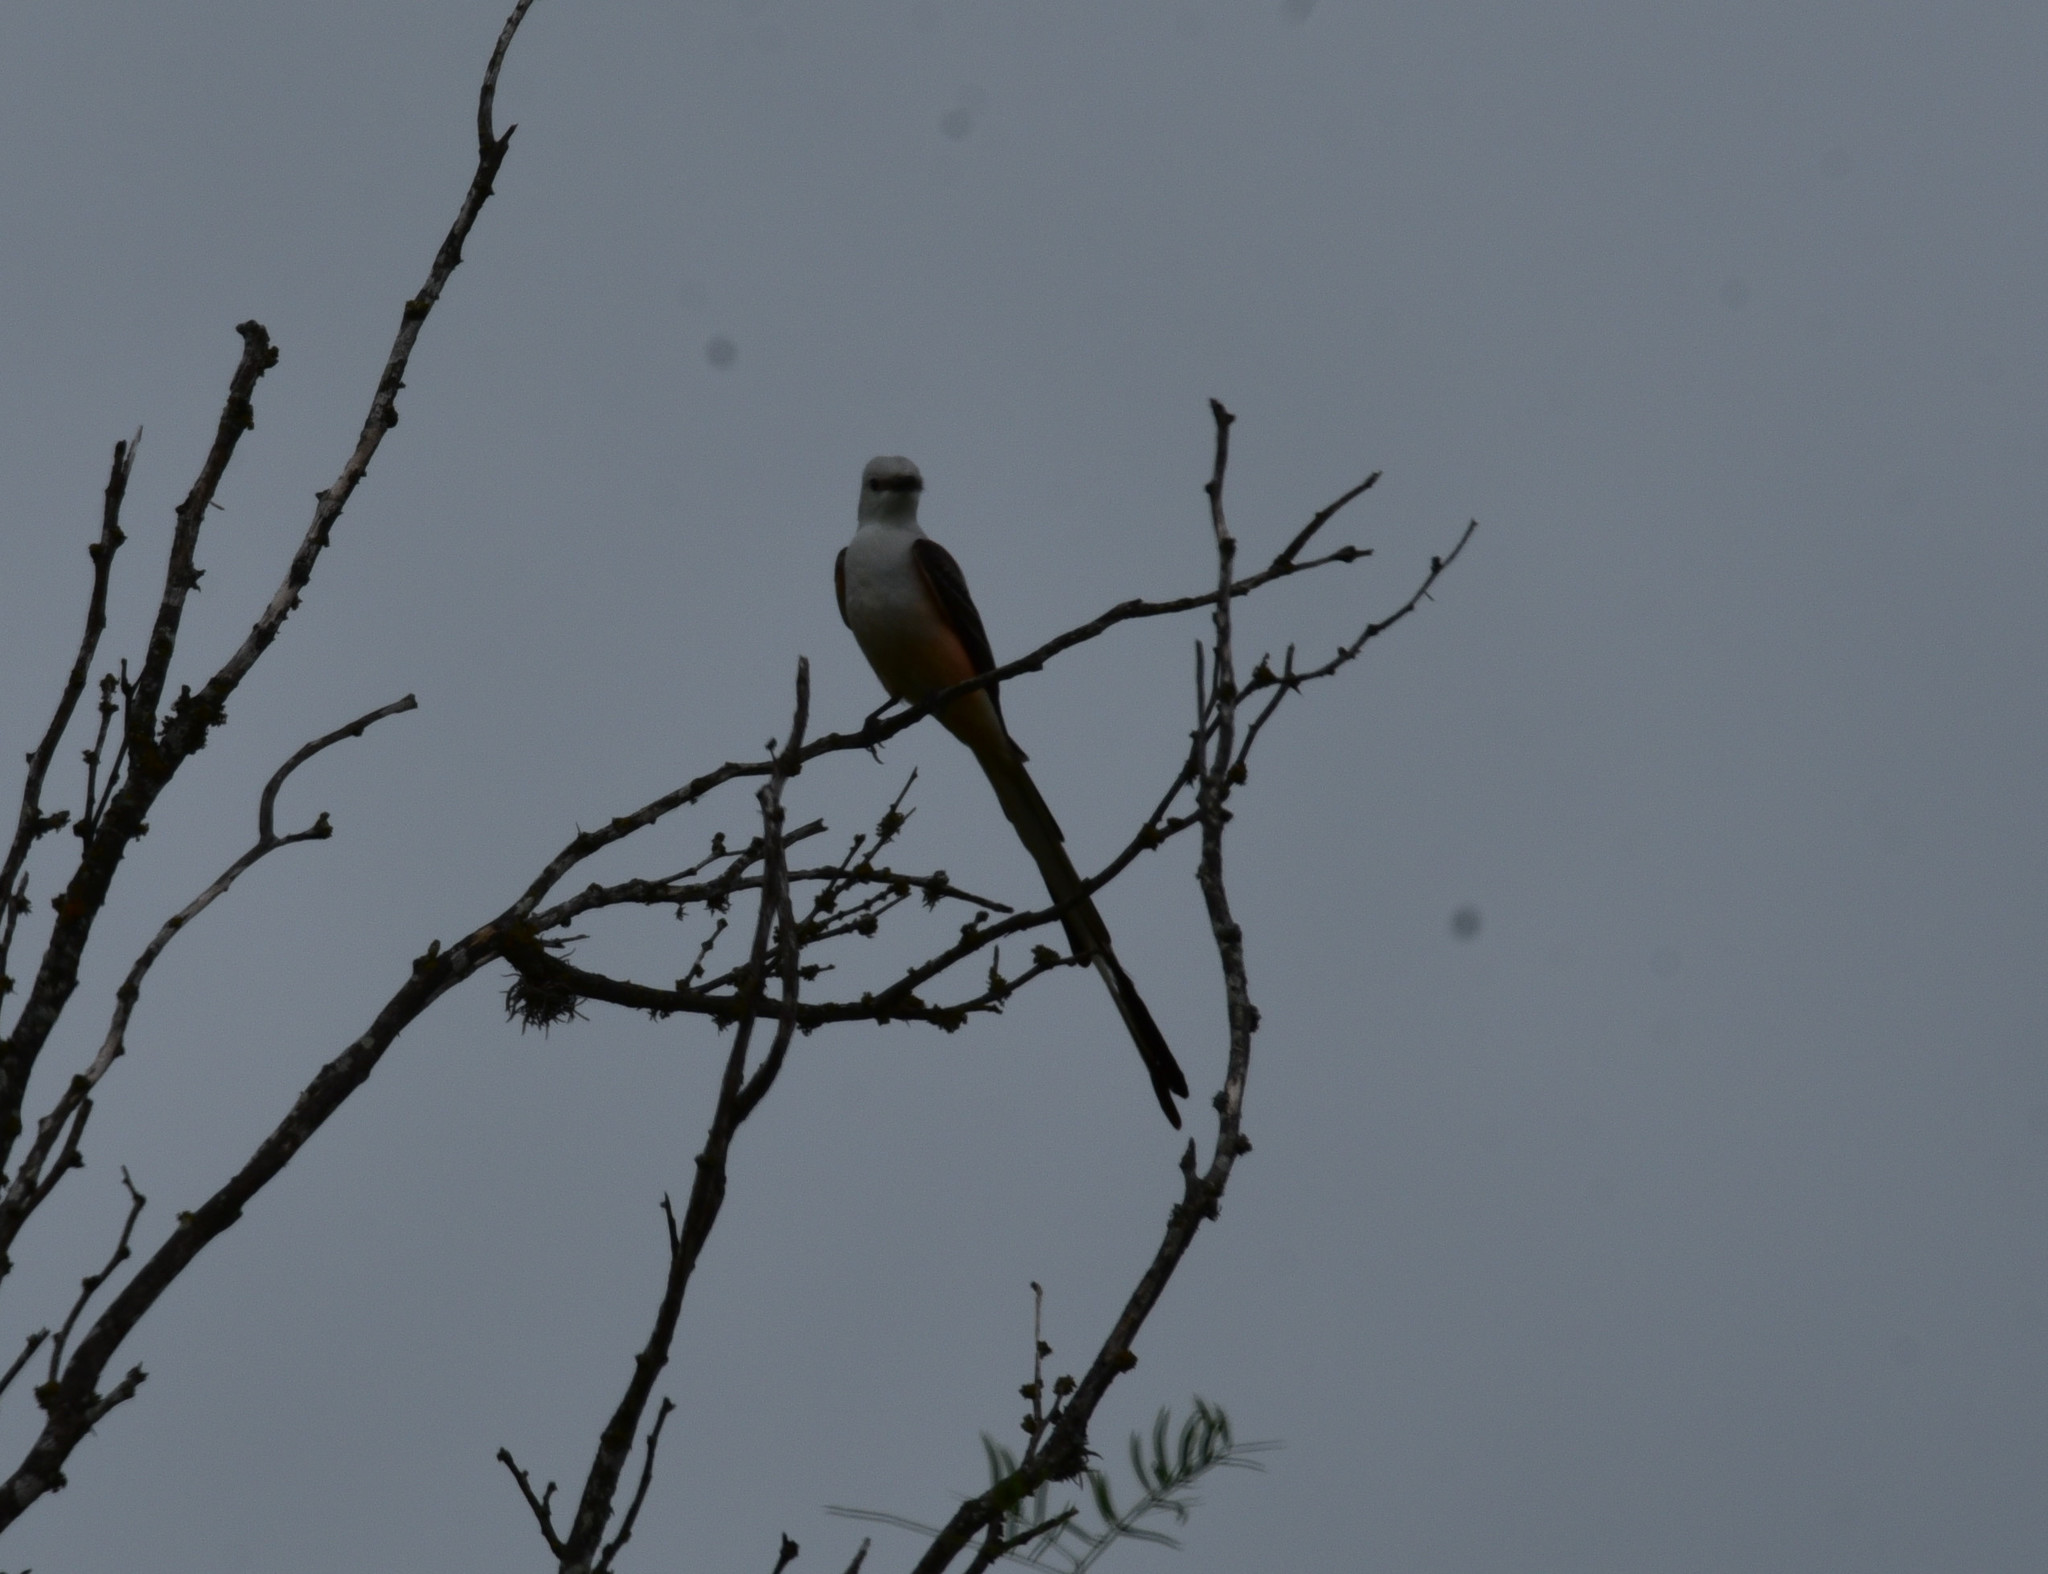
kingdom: Animalia
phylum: Chordata
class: Aves
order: Passeriformes
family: Tyrannidae
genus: Tyrannus
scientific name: Tyrannus forficatus
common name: Scissor-tailed flycatcher
